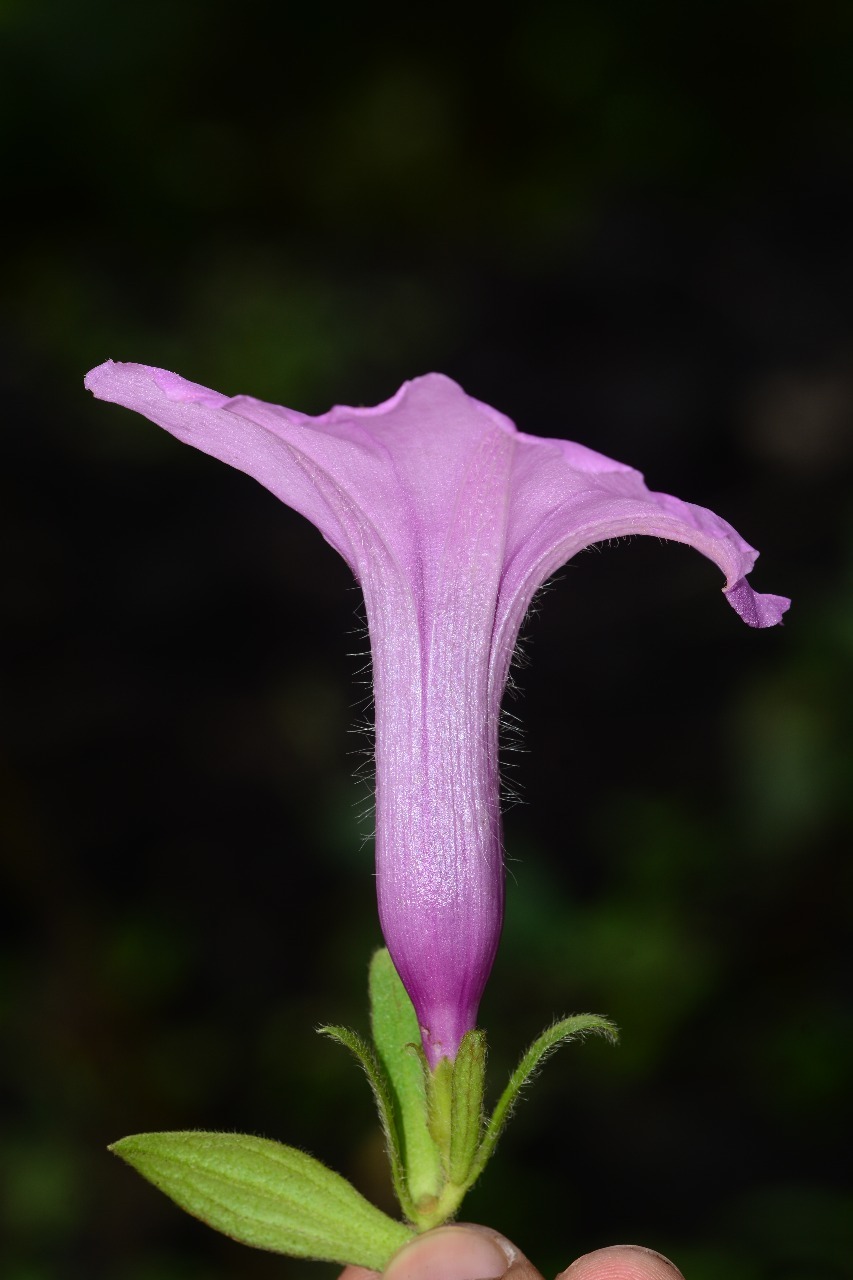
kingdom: Plantae
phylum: Tracheophyta
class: Magnoliopsida
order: Solanales
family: Convolvulaceae
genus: Argyreia
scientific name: Argyreia srinivasanii
